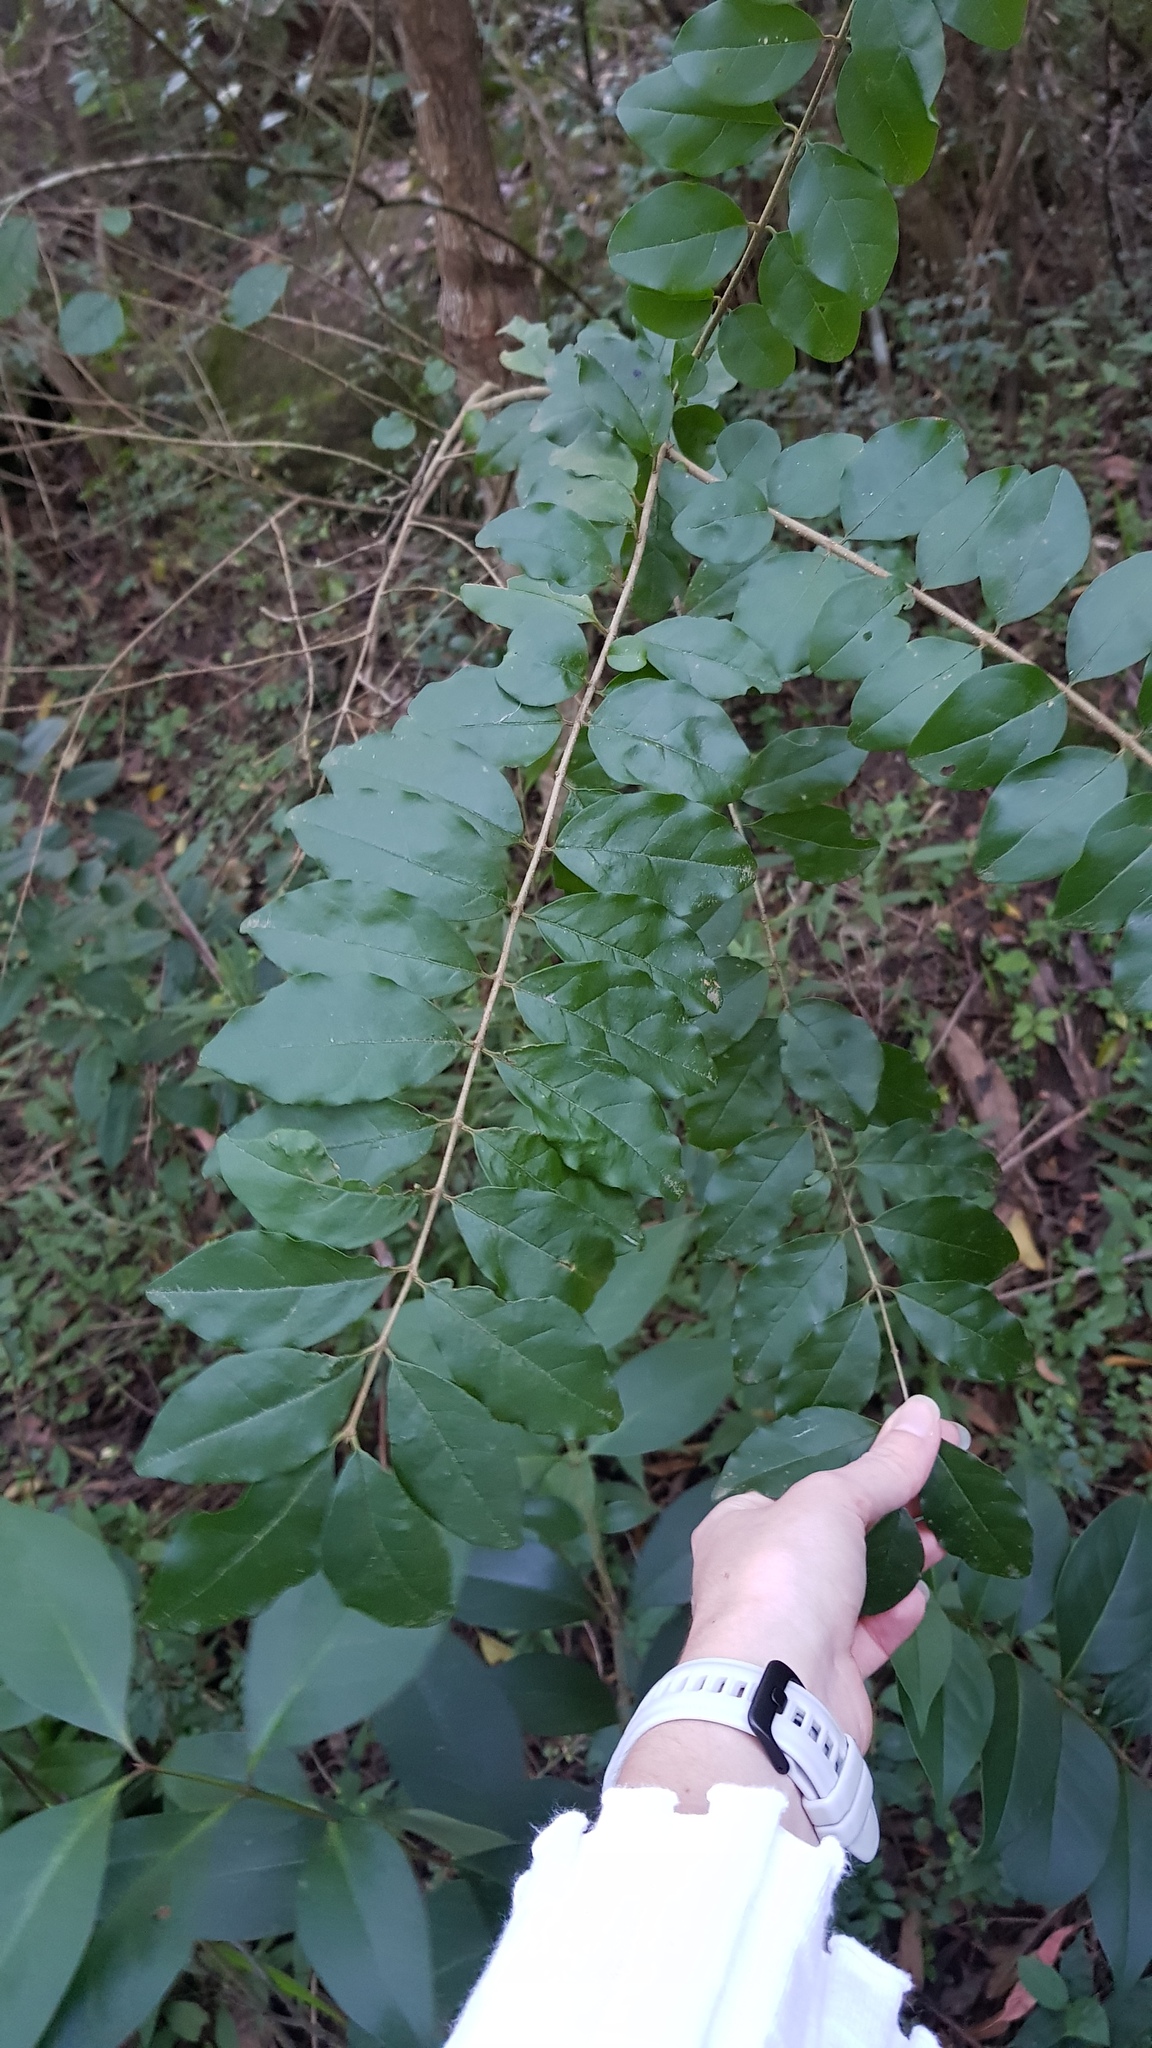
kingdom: Plantae
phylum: Tracheophyta
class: Magnoliopsida
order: Lamiales
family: Oleaceae
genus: Ligustrum
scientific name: Ligustrum sinense
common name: Chinese privet
